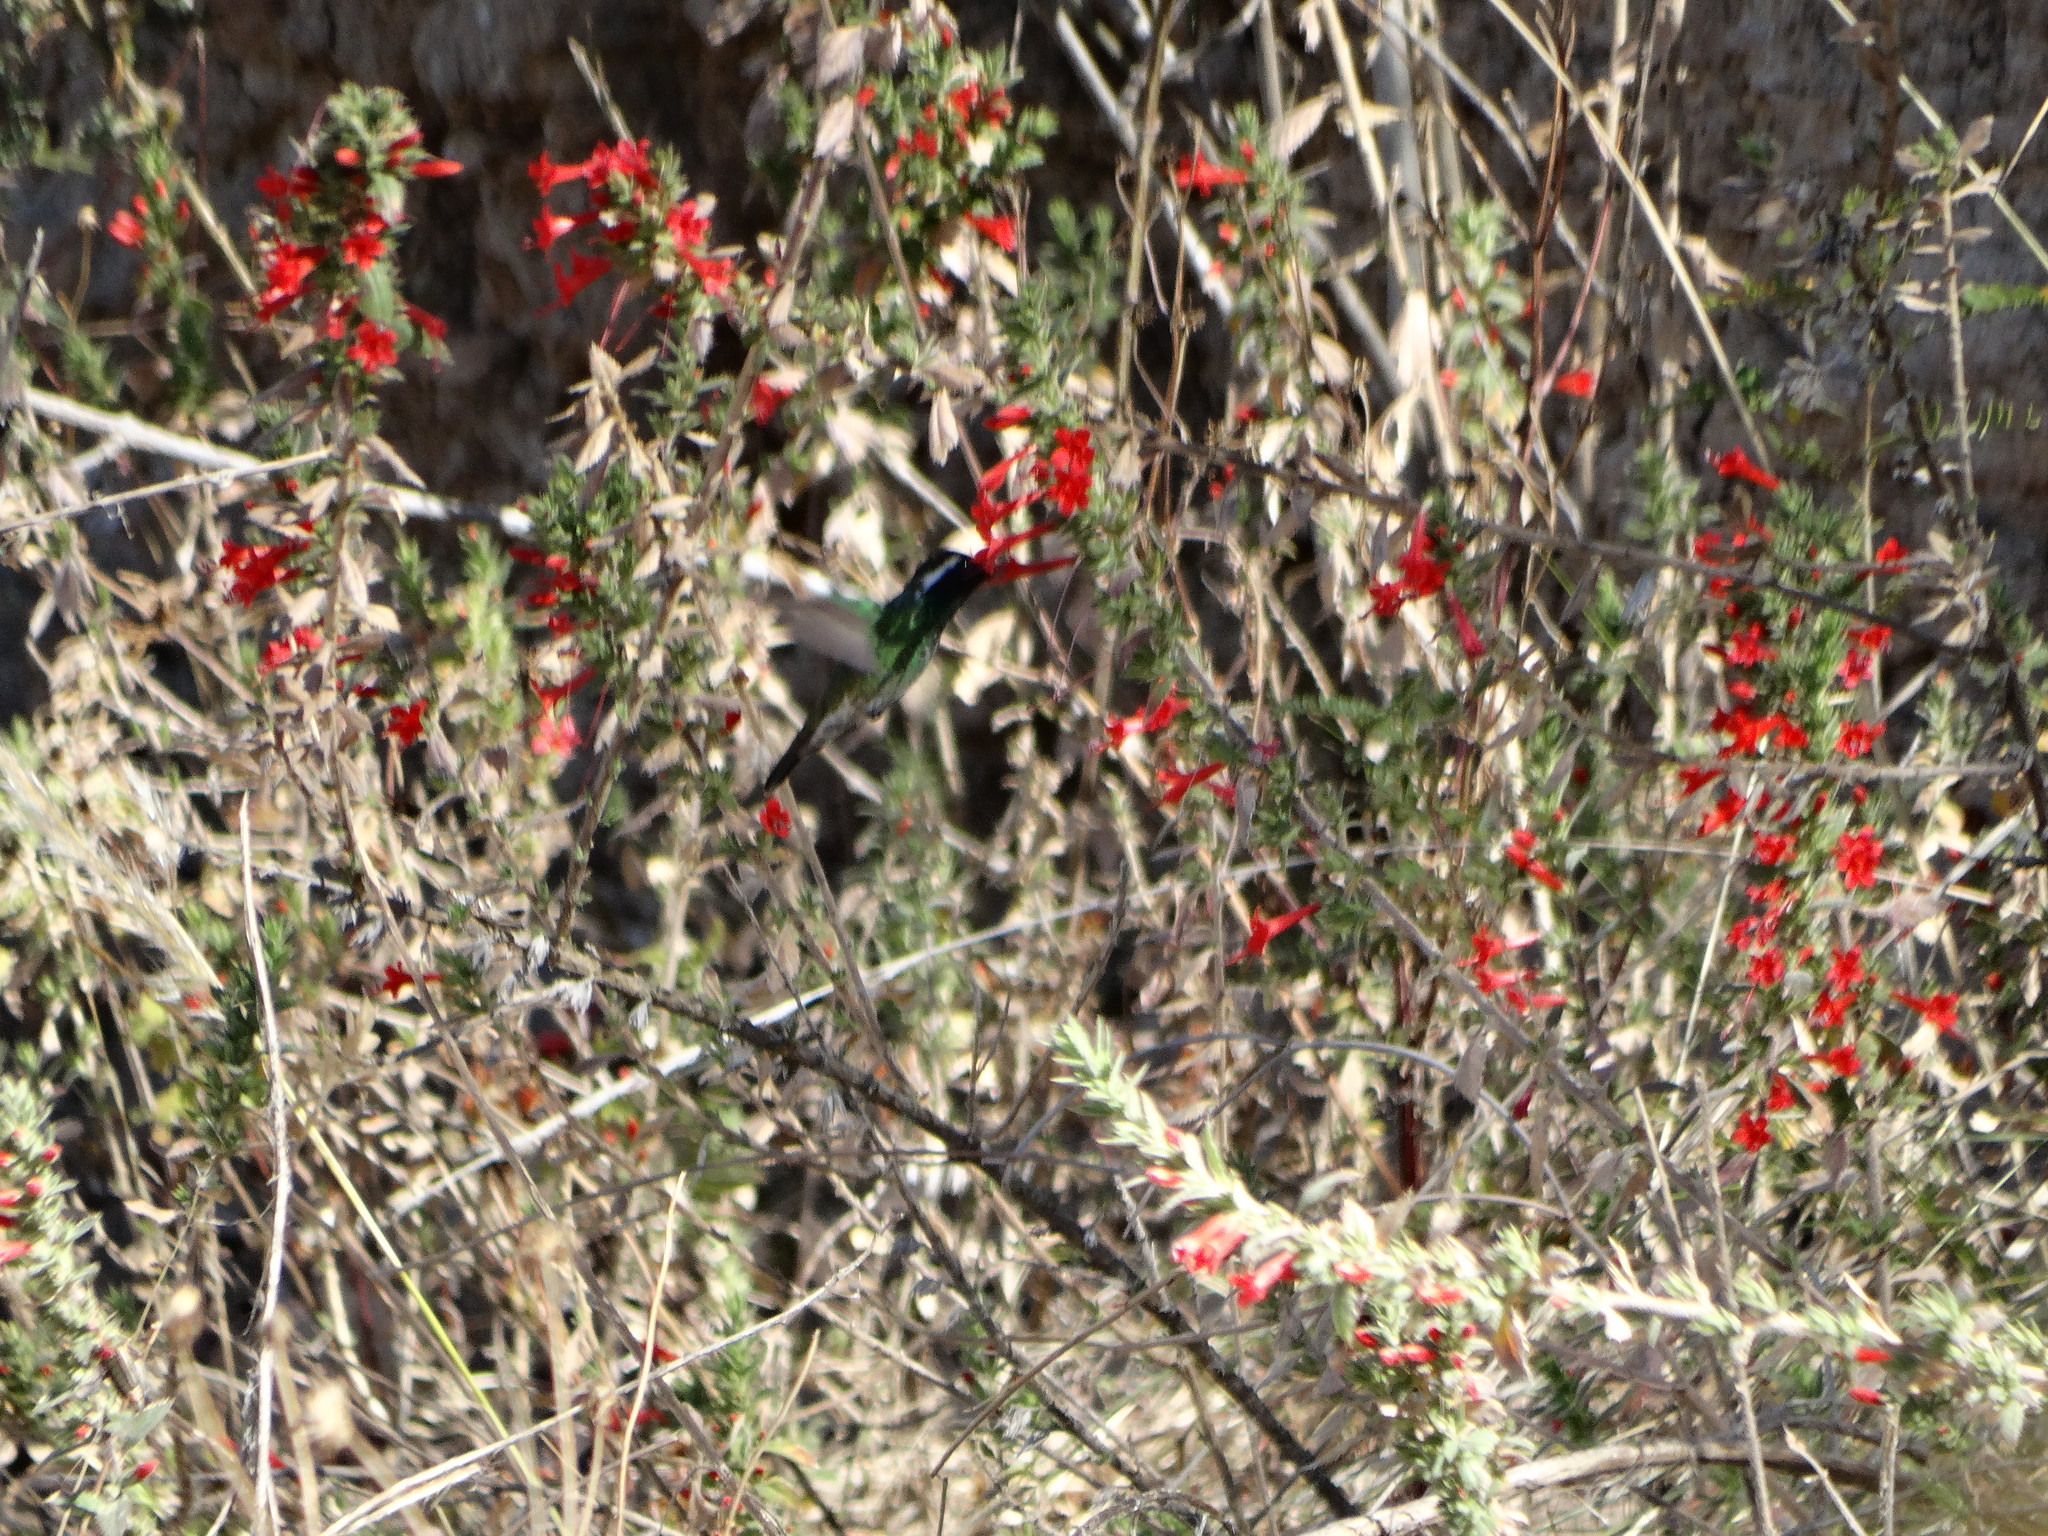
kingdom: Animalia
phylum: Chordata
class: Aves
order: Apodiformes
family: Trochilidae
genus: Basilinna
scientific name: Basilinna leucotis
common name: White-eared hummingbird
